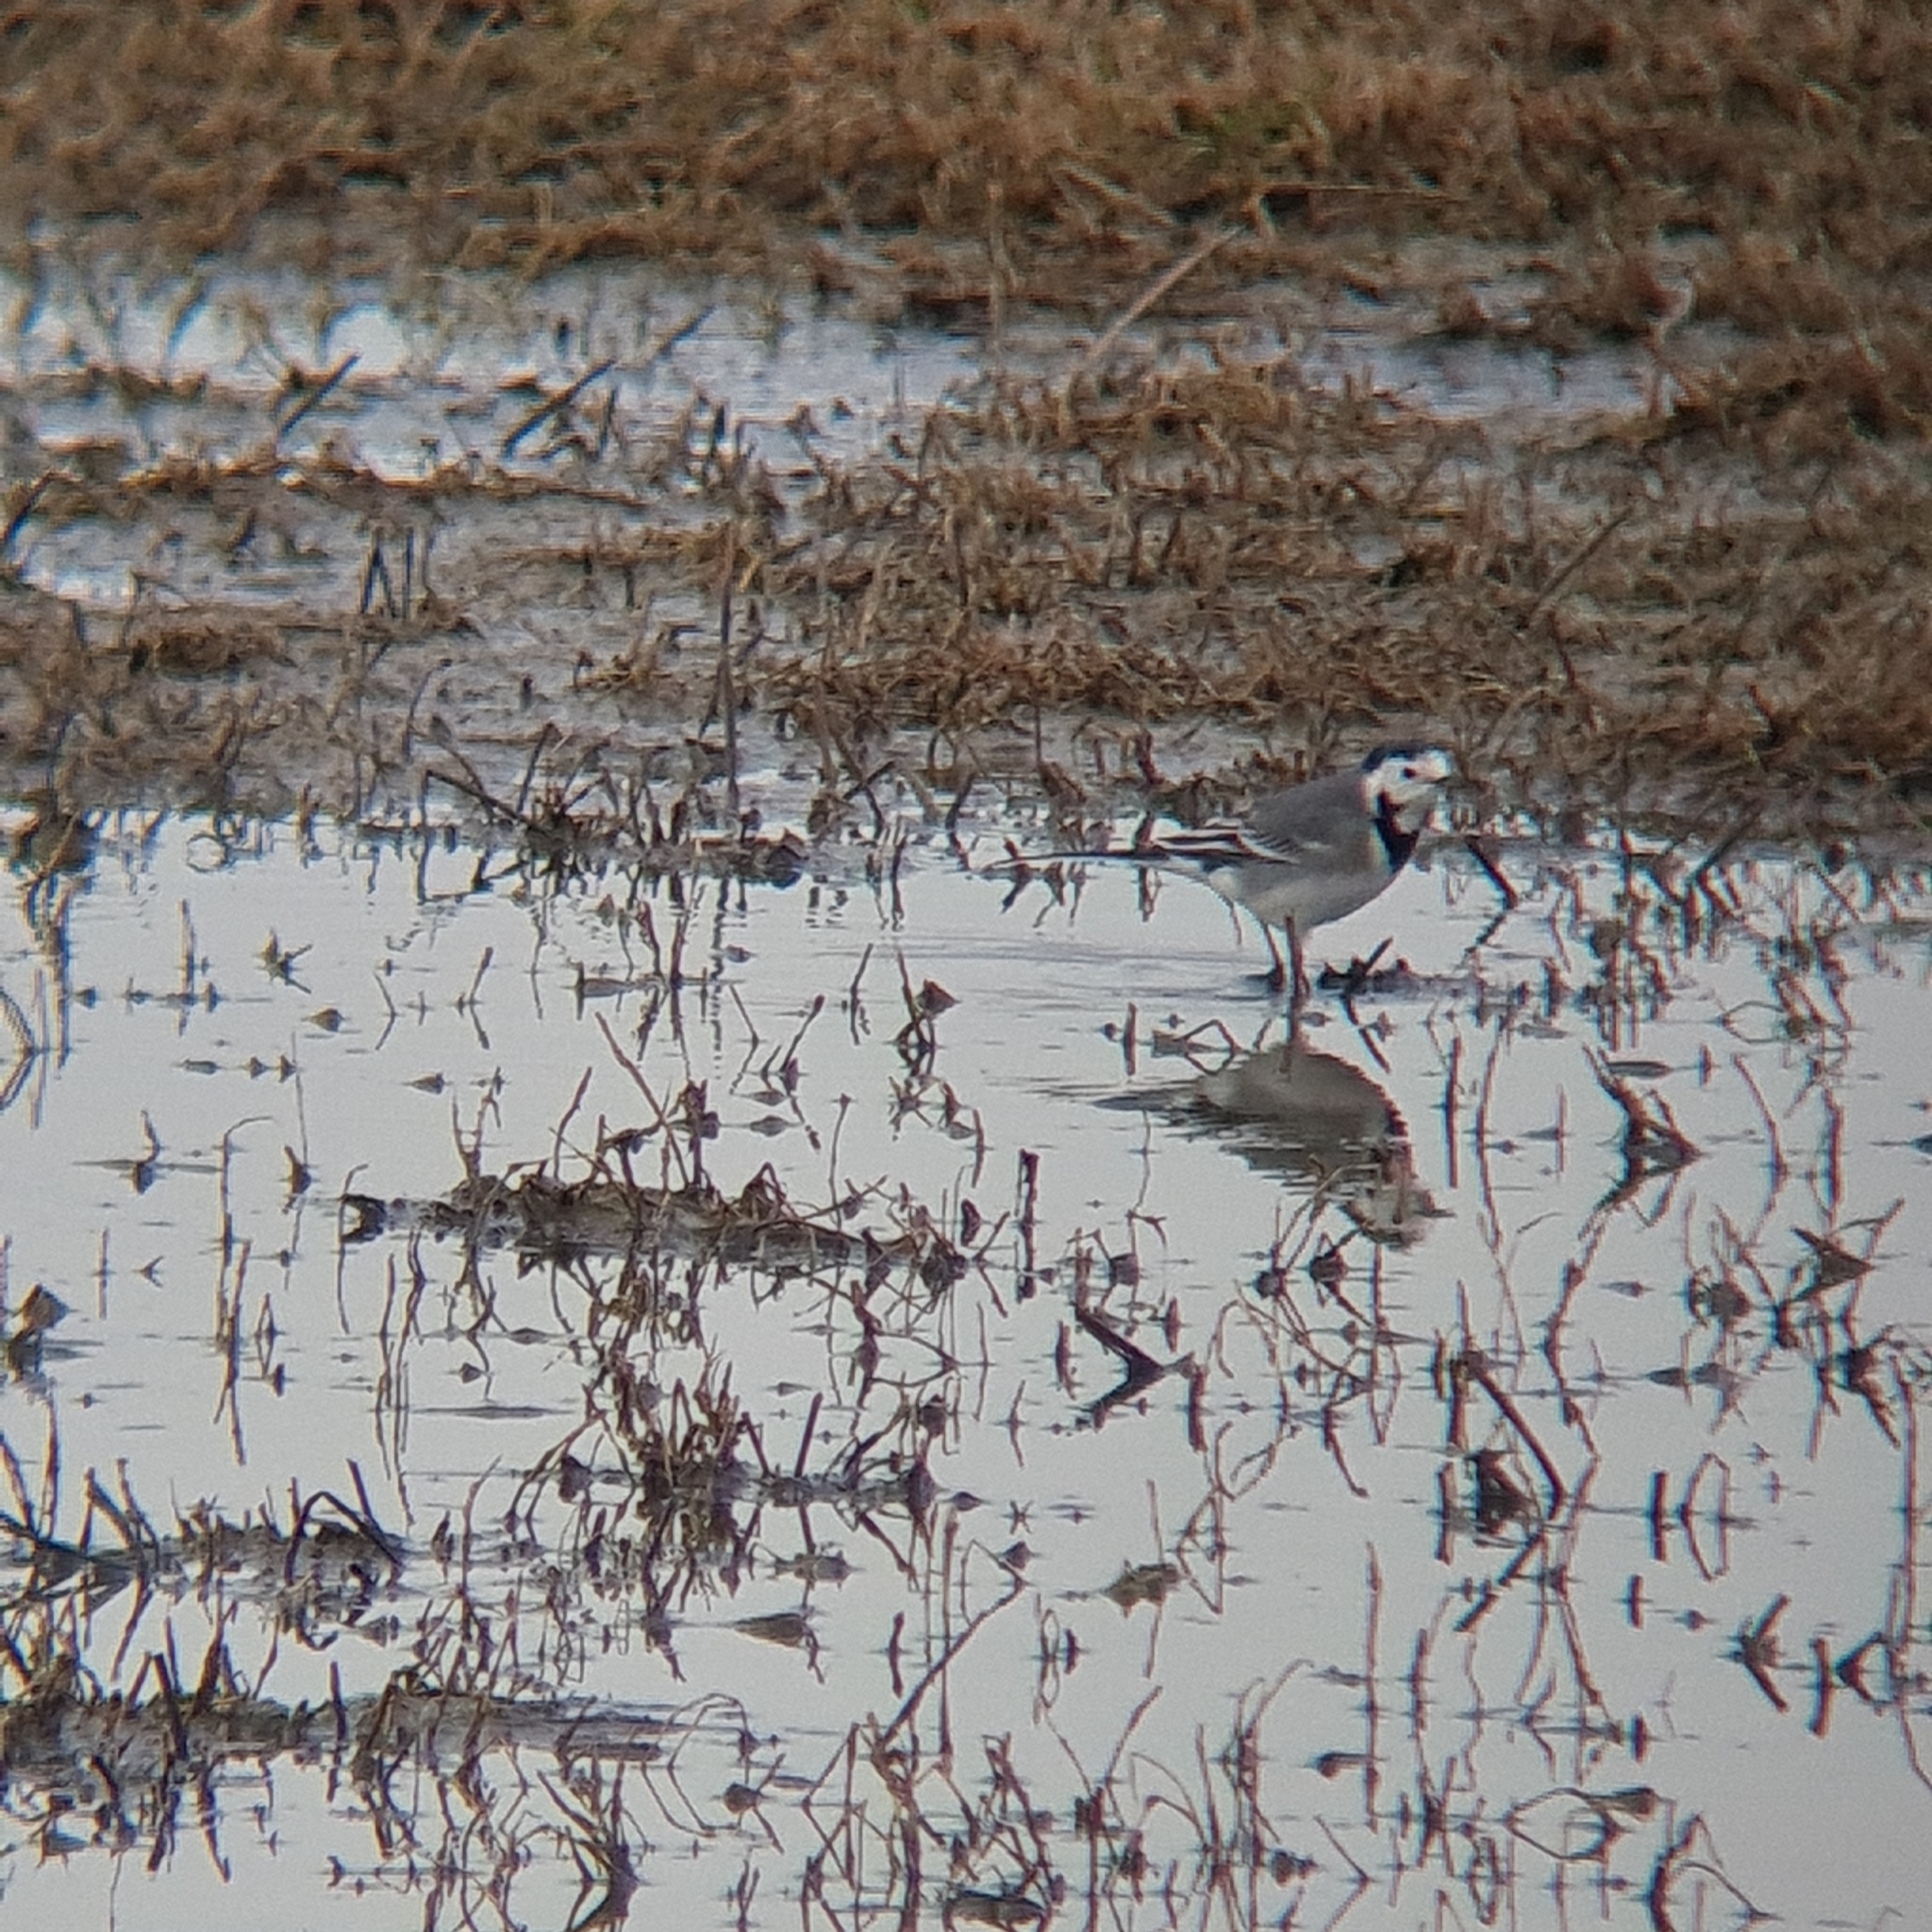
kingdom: Animalia
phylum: Chordata
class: Aves
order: Passeriformes
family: Motacillidae
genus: Motacilla
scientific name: Motacilla alba
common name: White wagtail
